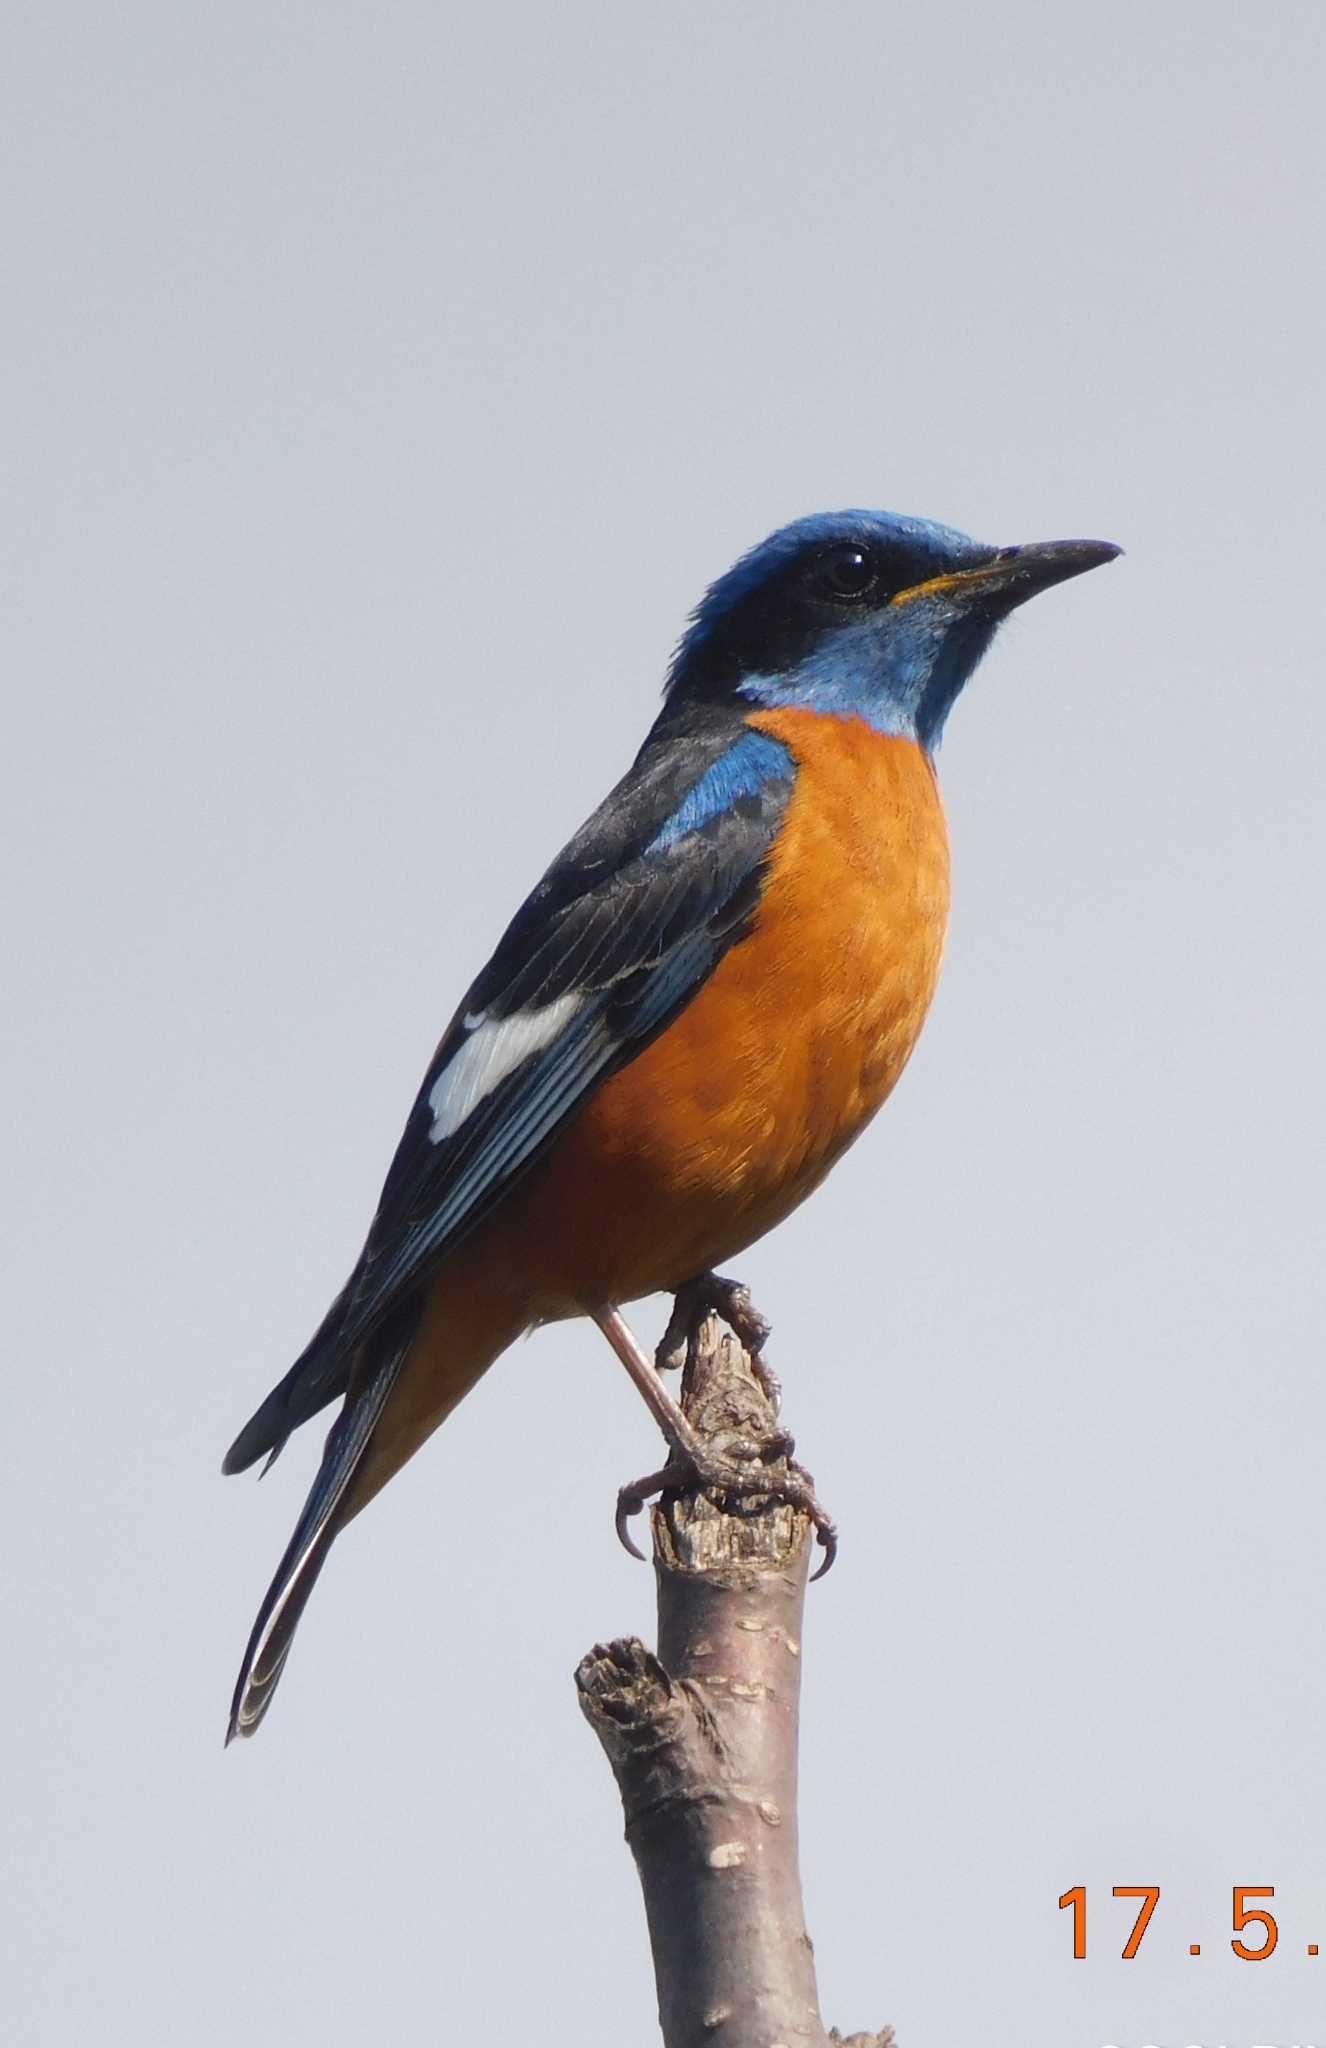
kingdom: Animalia
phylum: Chordata
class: Aves
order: Passeriformes
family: Muscicapidae
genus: Monticola
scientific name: Monticola cinclorhynchus
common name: Blue-capped rock thrush
